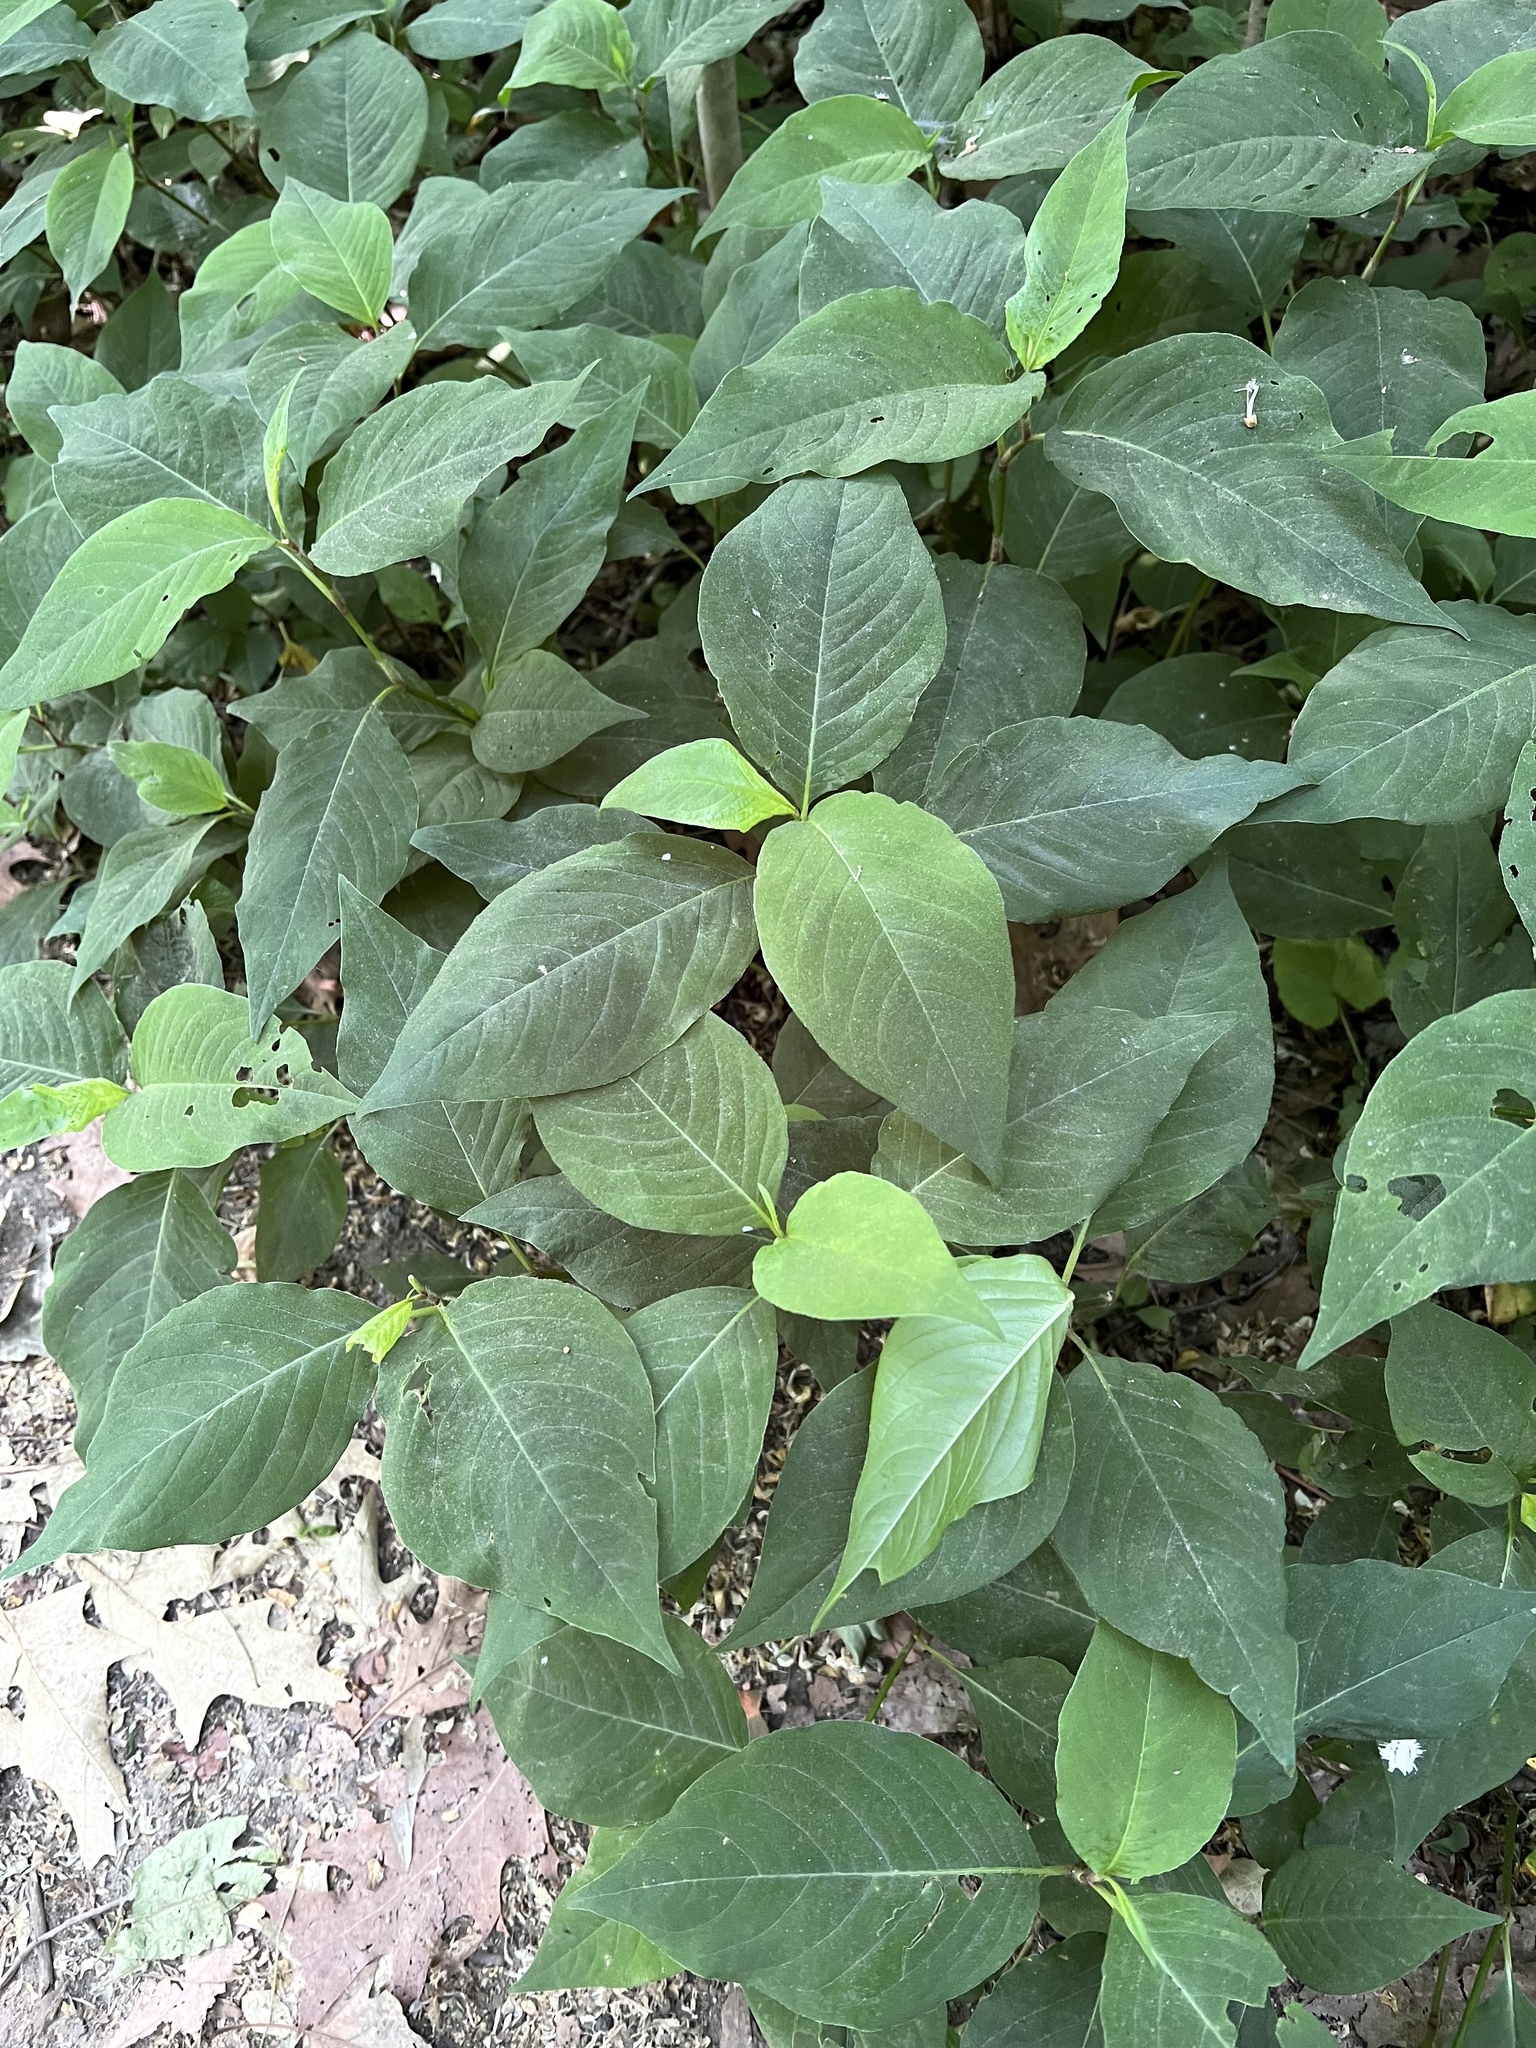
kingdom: Plantae
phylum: Tracheophyta
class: Magnoliopsida
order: Caryophyllales
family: Polygonaceae
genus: Persicaria
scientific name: Persicaria virginiana
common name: Jumpseed
